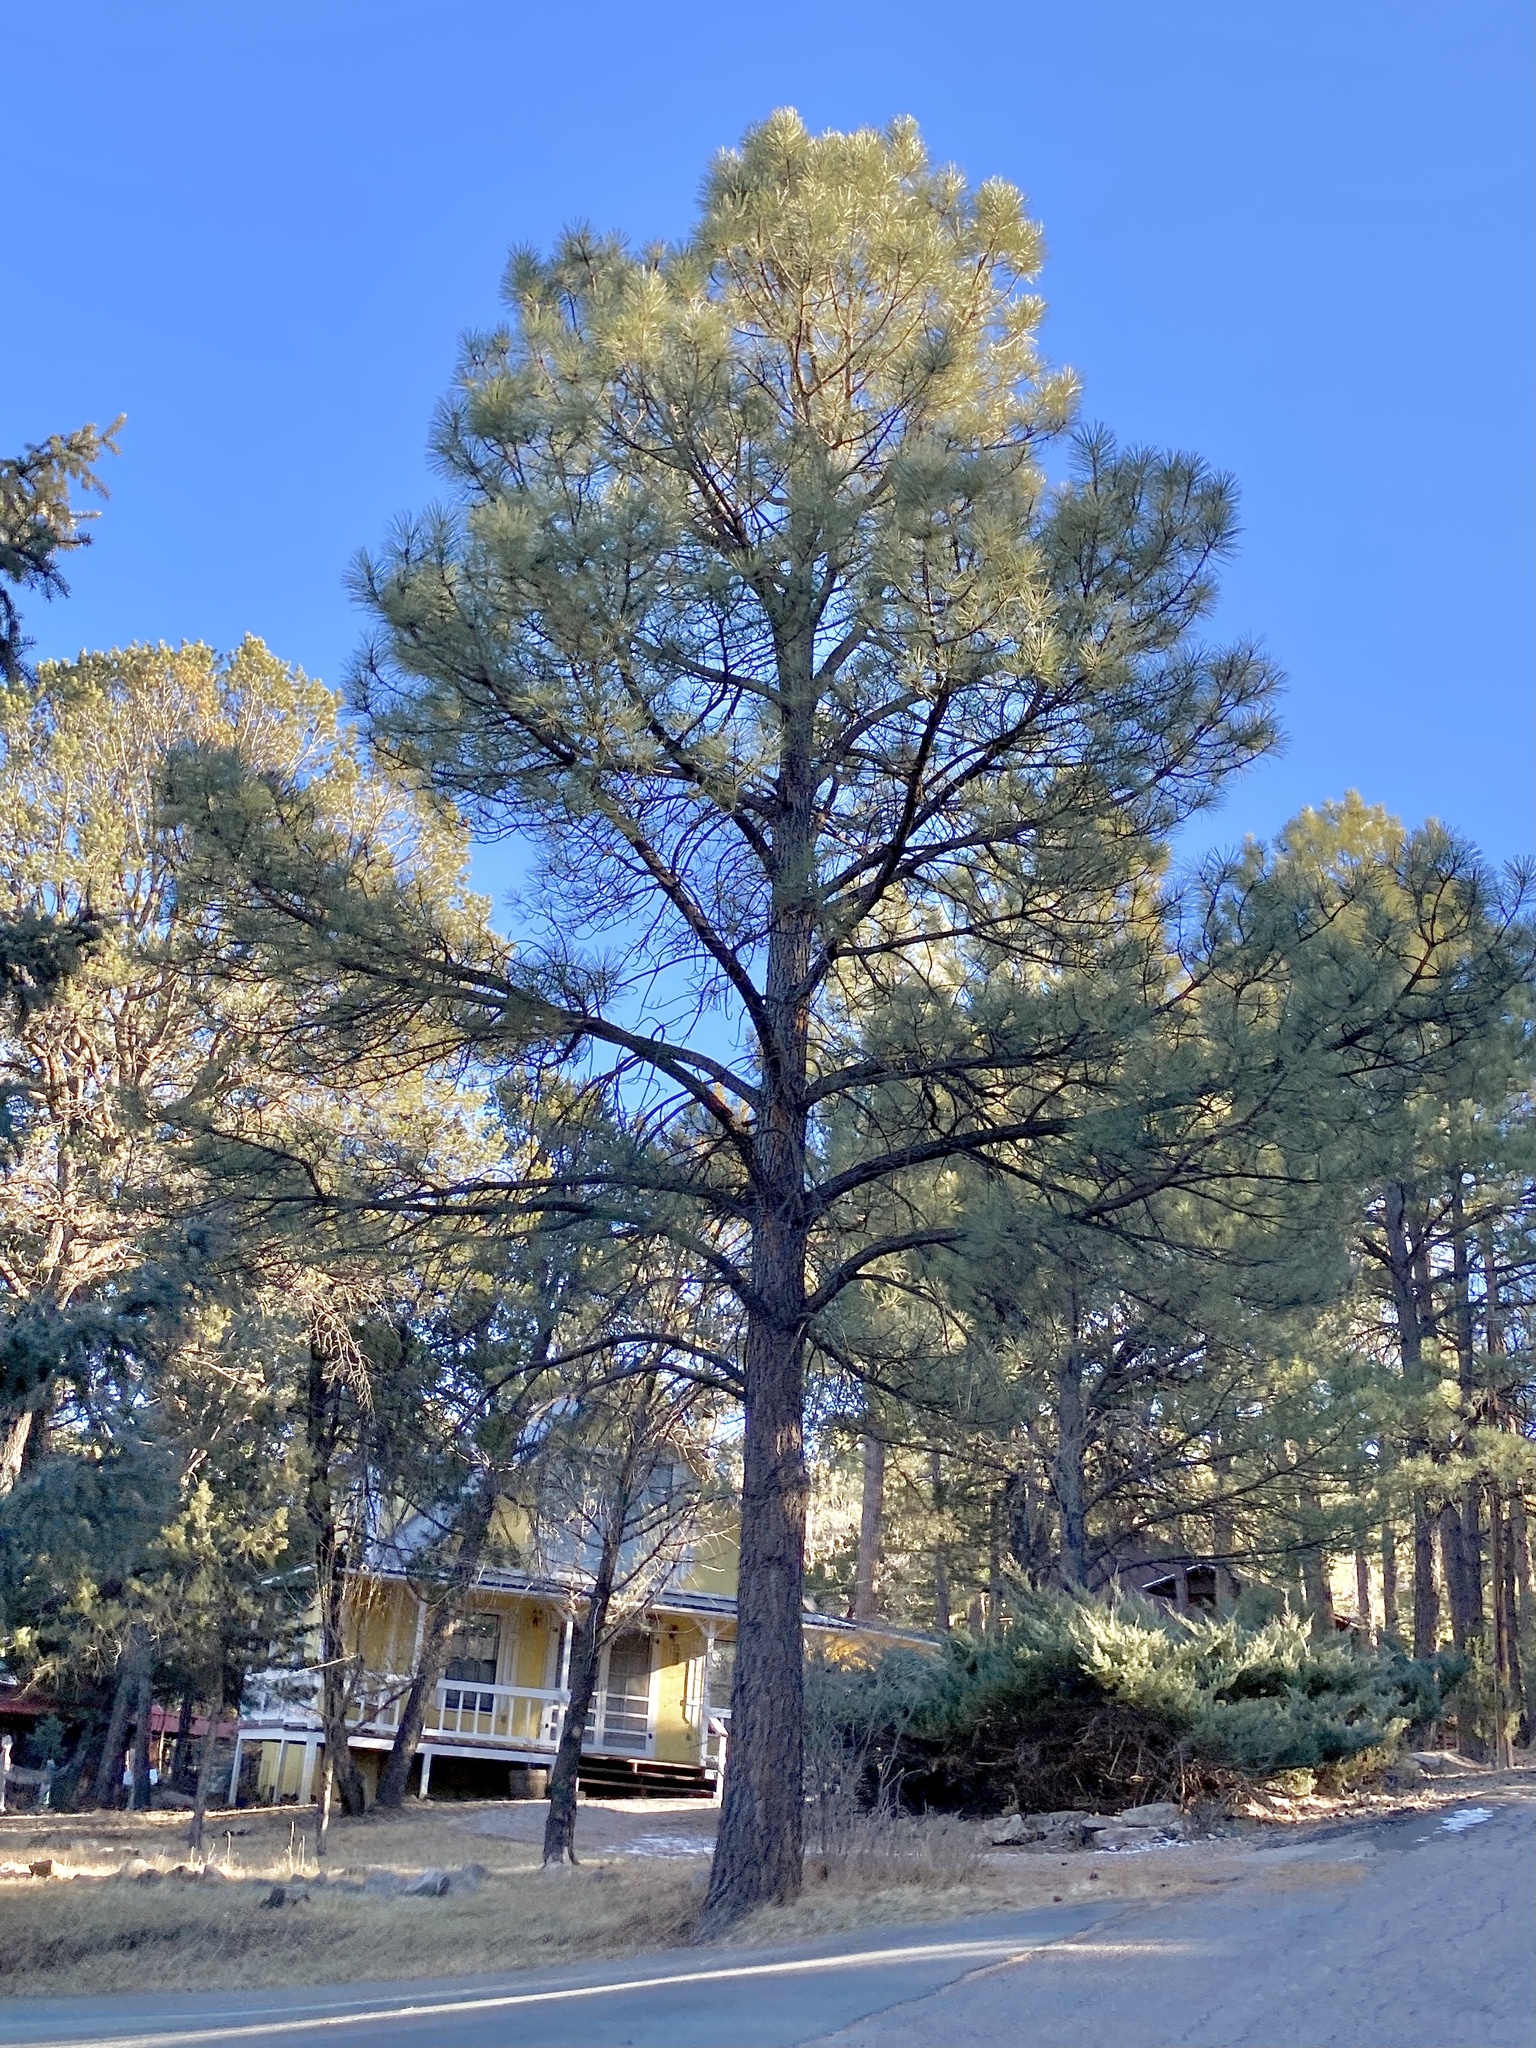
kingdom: Plantae
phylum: Tracheophyta
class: Pinopsida
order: Pinales
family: Pinaceae
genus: Pinus
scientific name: Pinus ponderosa
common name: Western yellow-pine
